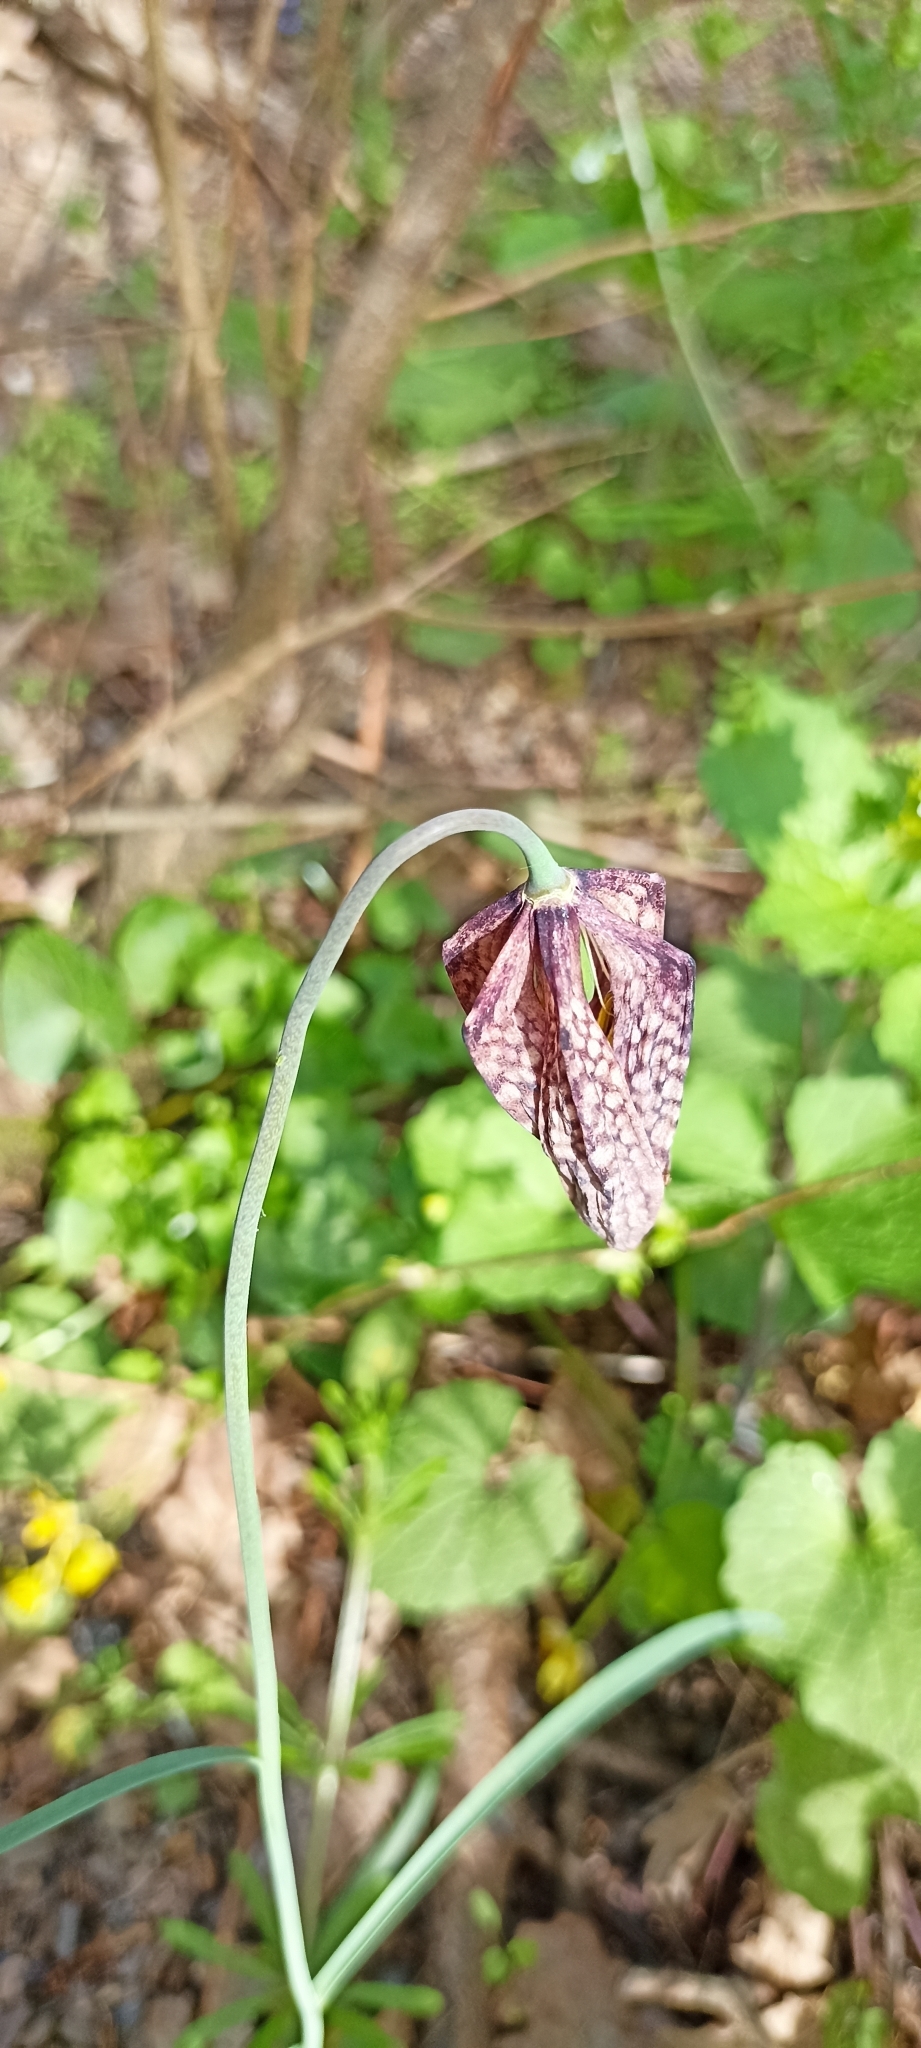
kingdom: Plantae
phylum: Tracheophyta
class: Liliopsida
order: Liliales
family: Liliaceae
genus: Fritillaria
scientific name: Fritillaria meleagris
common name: Fritillary
